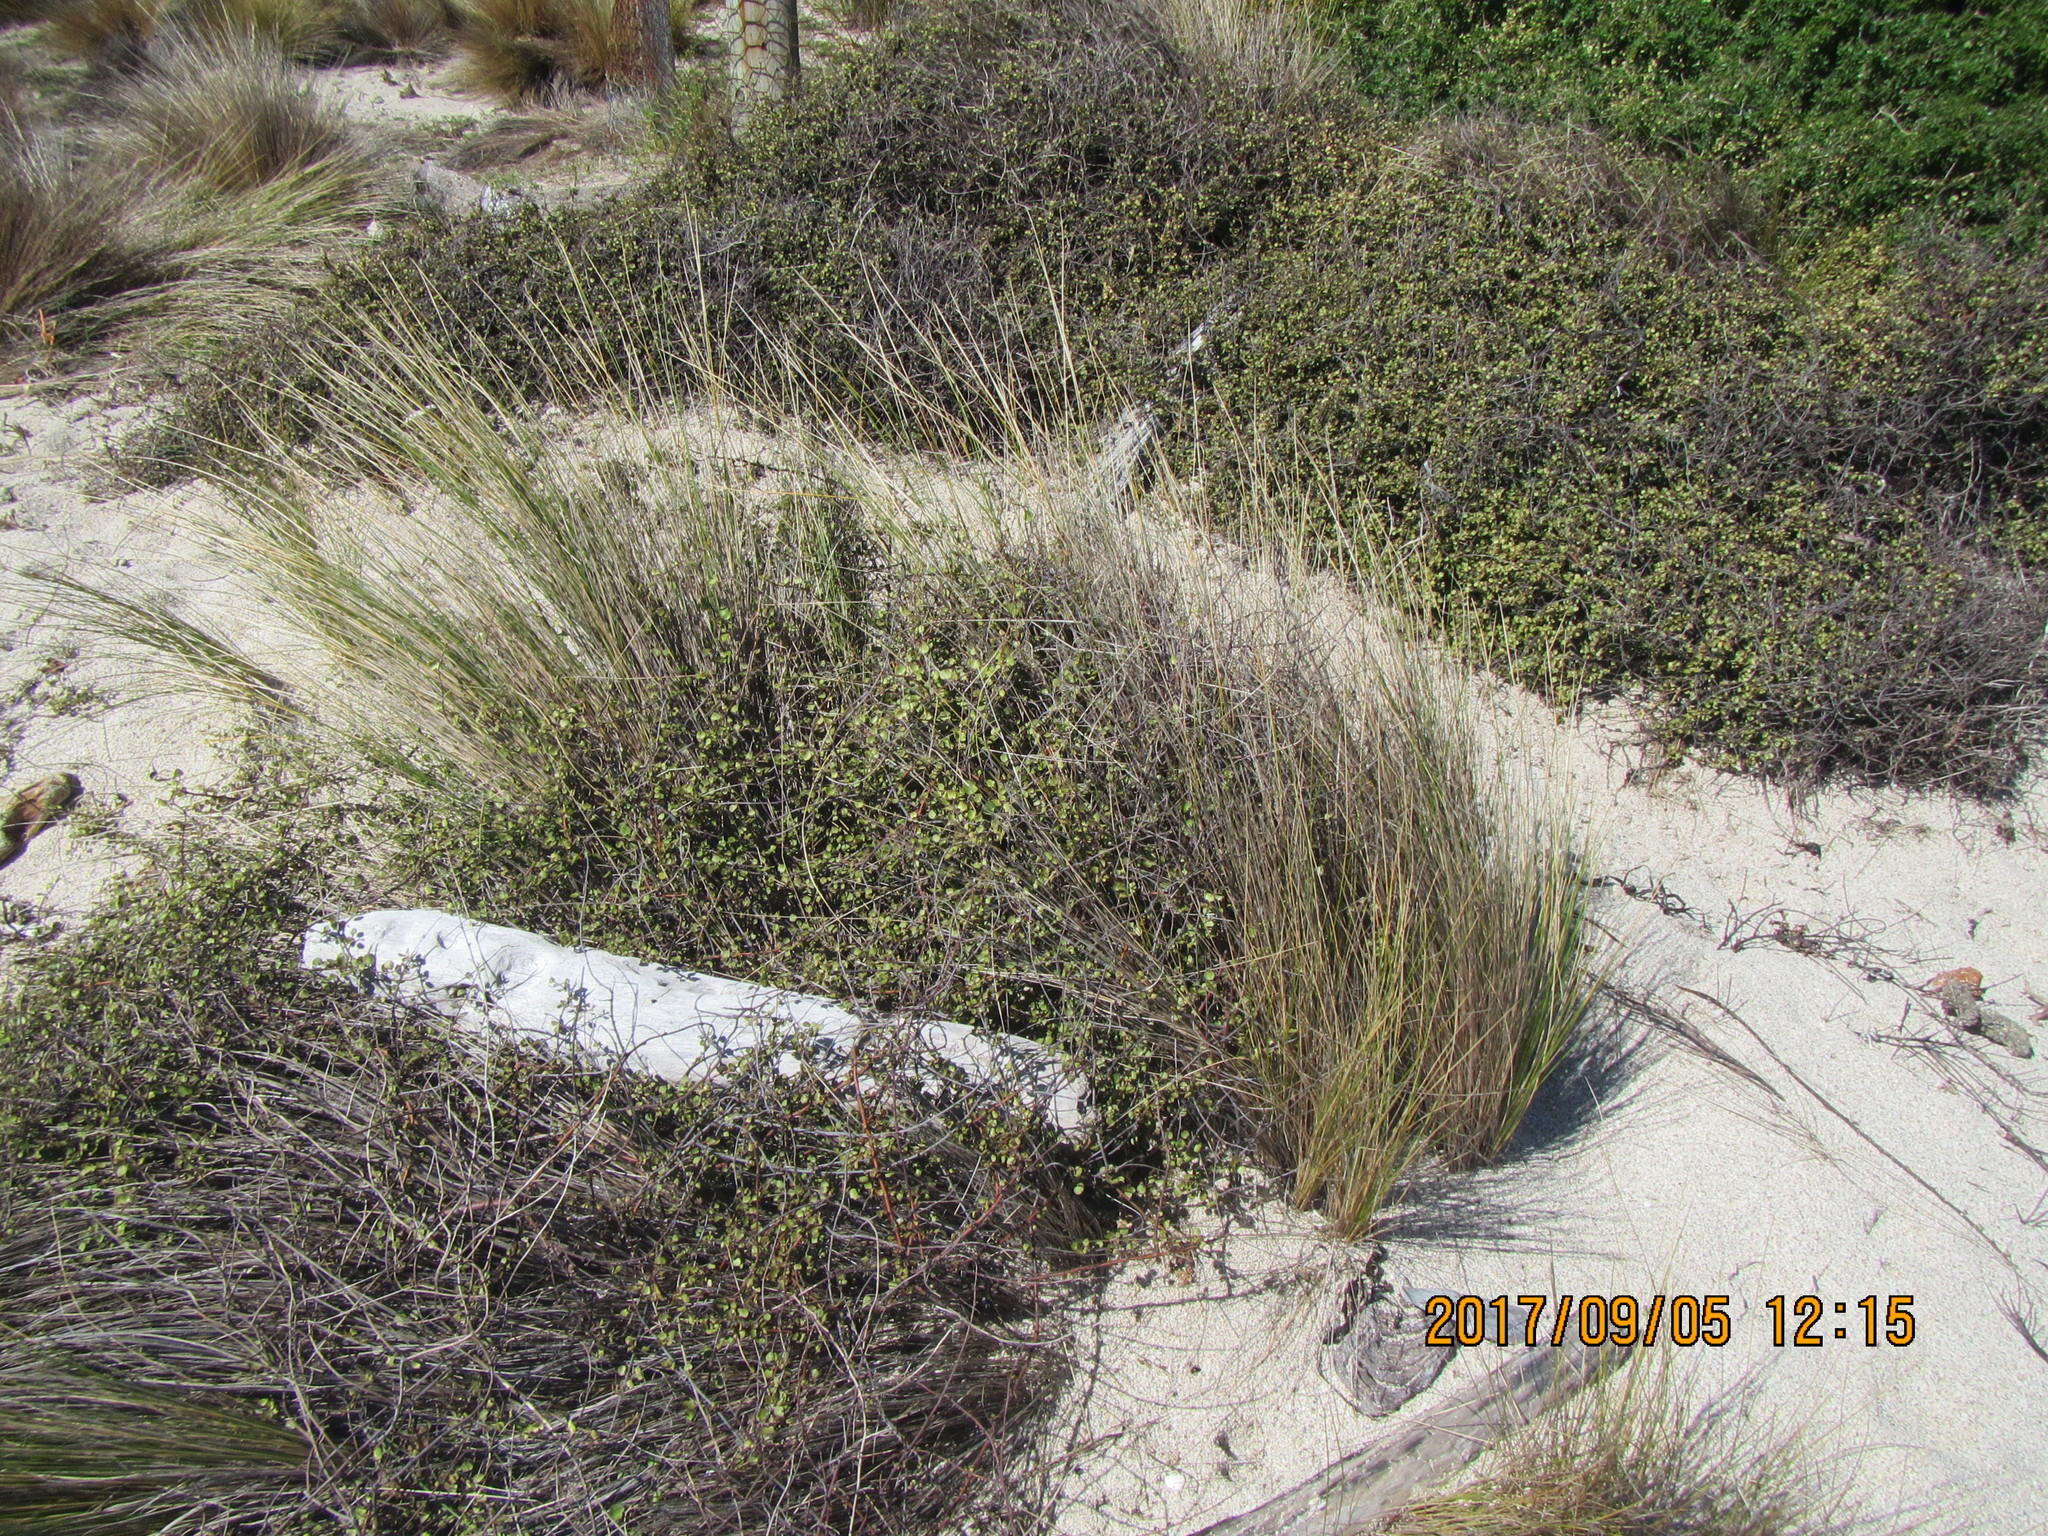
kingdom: Plantae
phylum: Tracheophyta
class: Magnoliopsida
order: Caryophyllales
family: Polygonaceae
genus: Muehlenbeckia
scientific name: Muehlenbeckia complexa
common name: Wireplant
